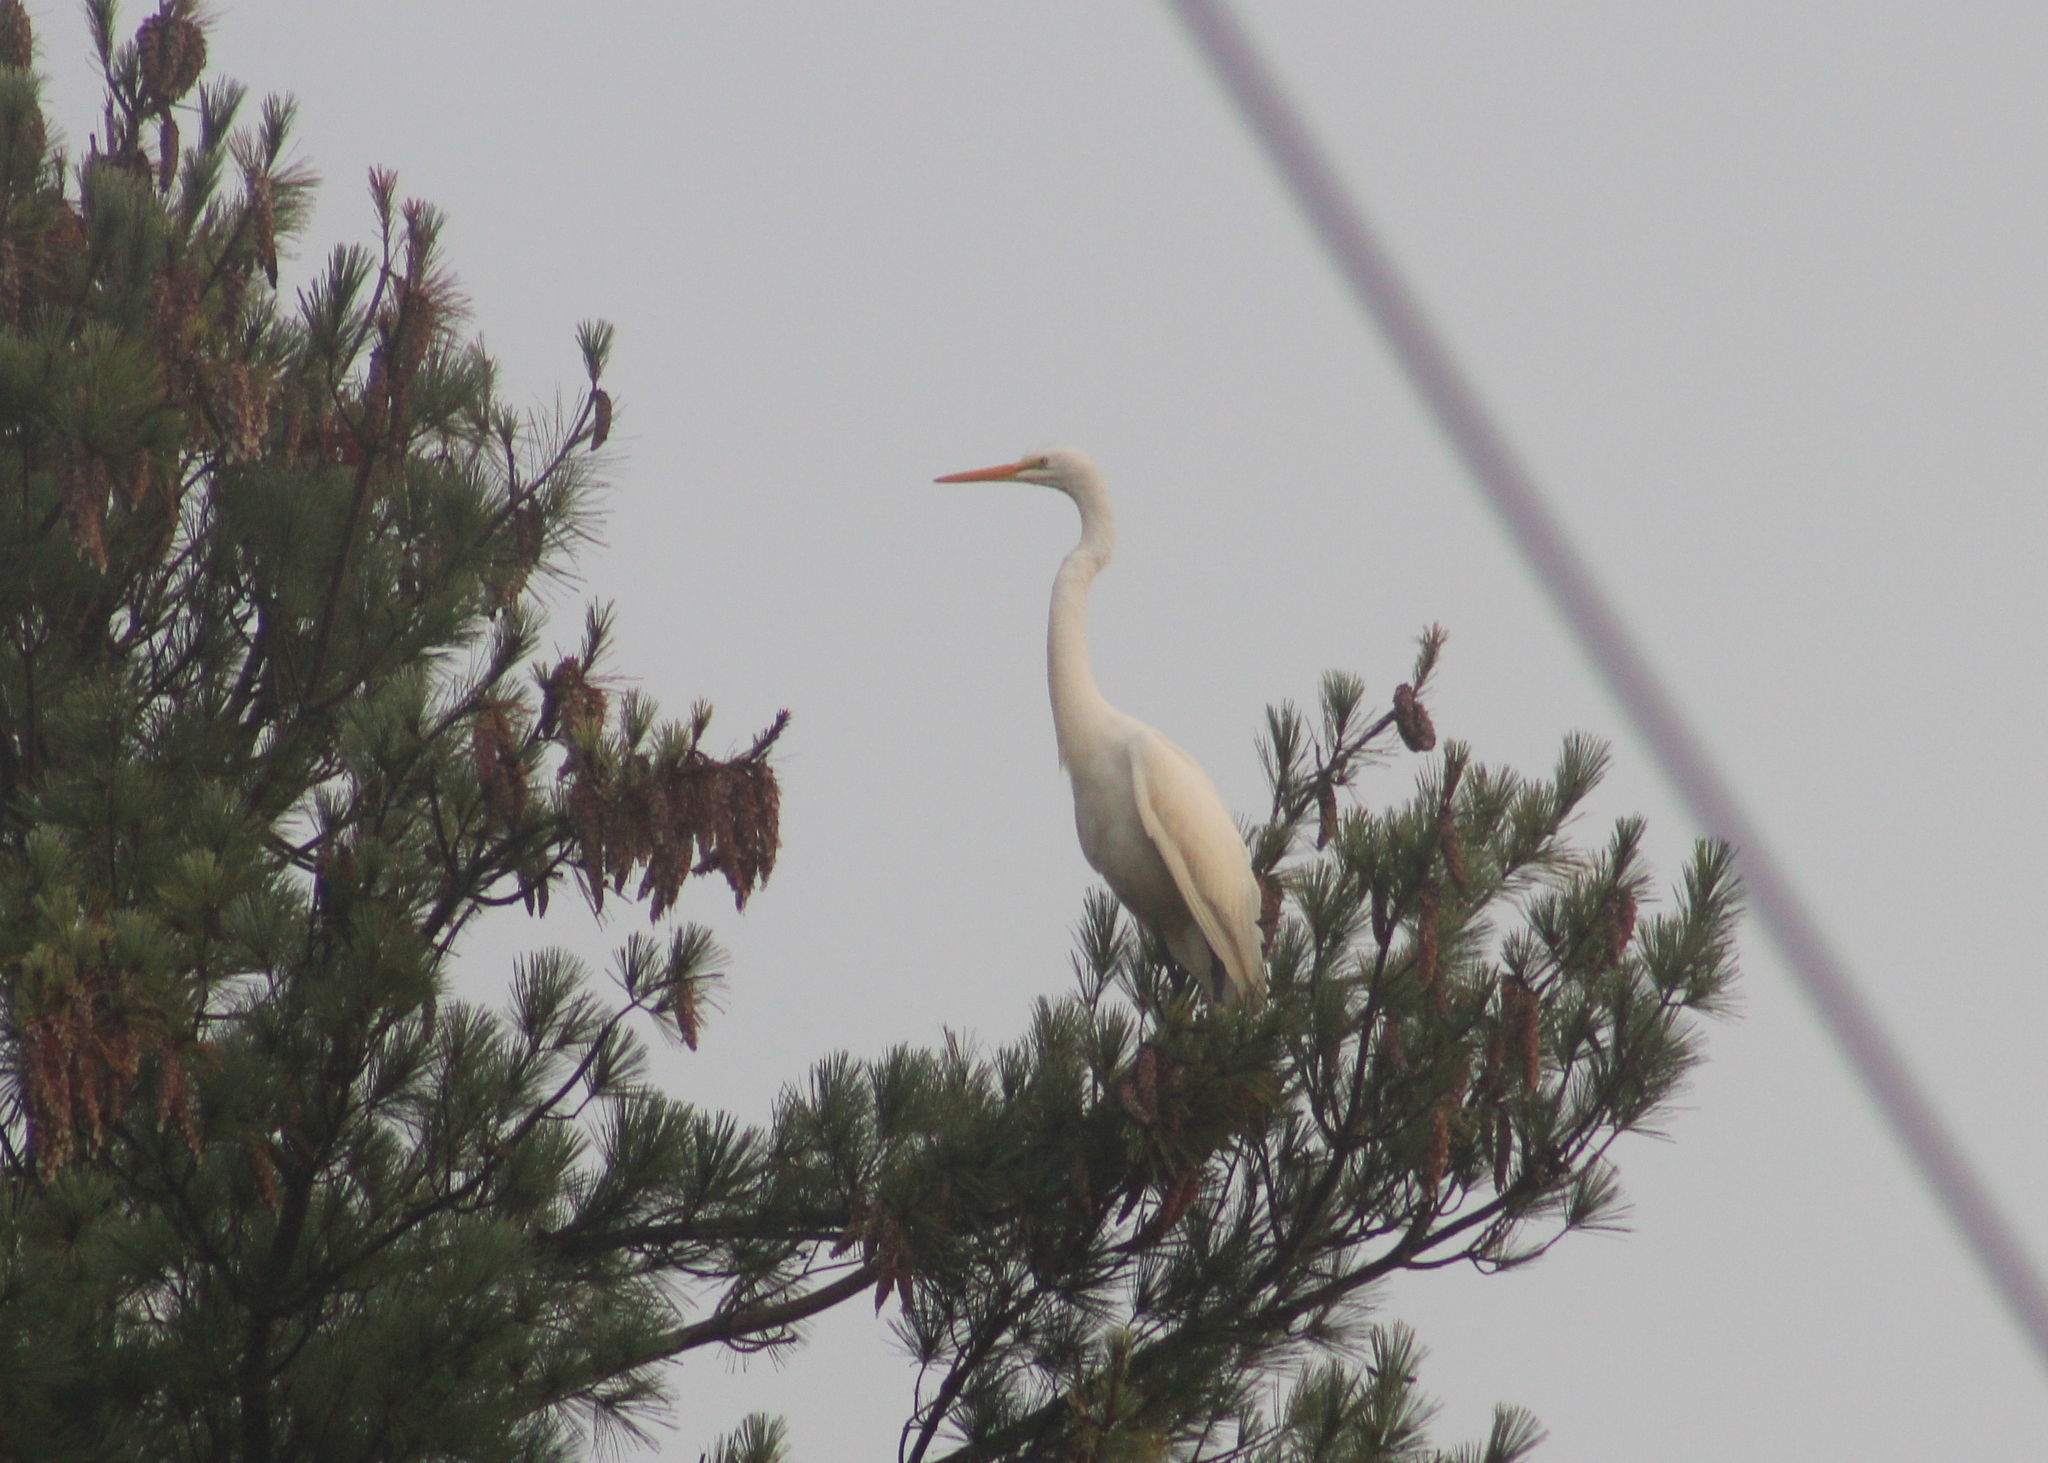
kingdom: Animalia
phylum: Chordata
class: Aves
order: Pelecaniformes
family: Ardeidae
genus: Ardea
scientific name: Ardea alba
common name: Great egret
